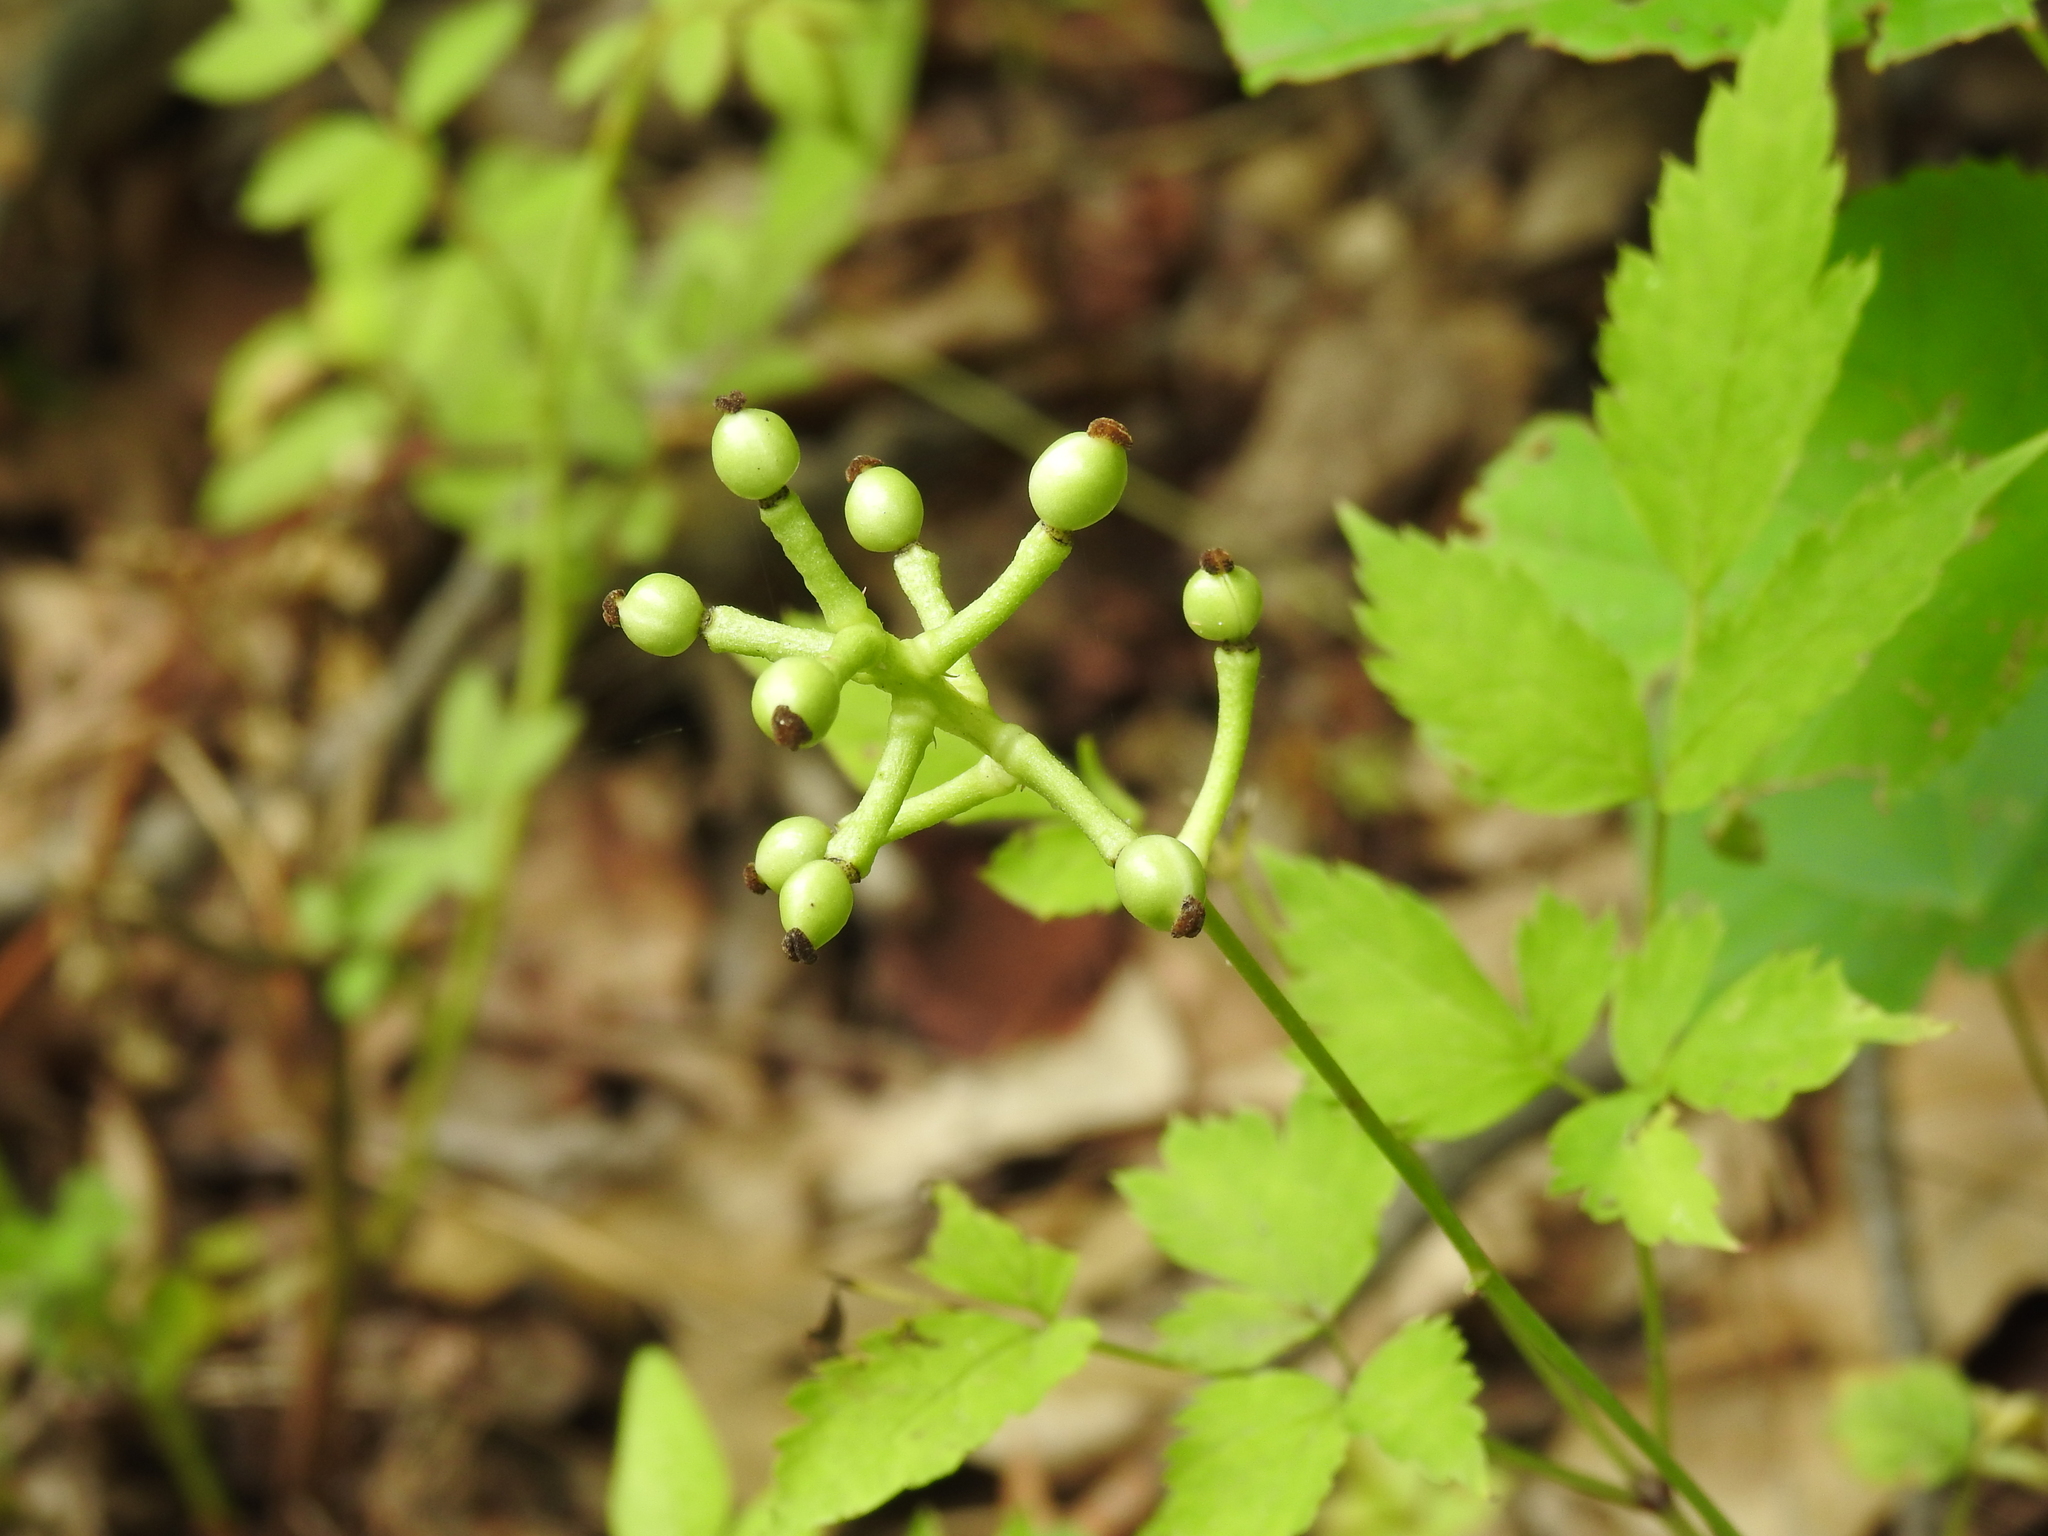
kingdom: Plantae
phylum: Tracheophyta
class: Magnoliopsida
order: Ranunculales
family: Ranunculaceae
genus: Actaea
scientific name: Actaea pachypoda
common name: Doll's-eyes
